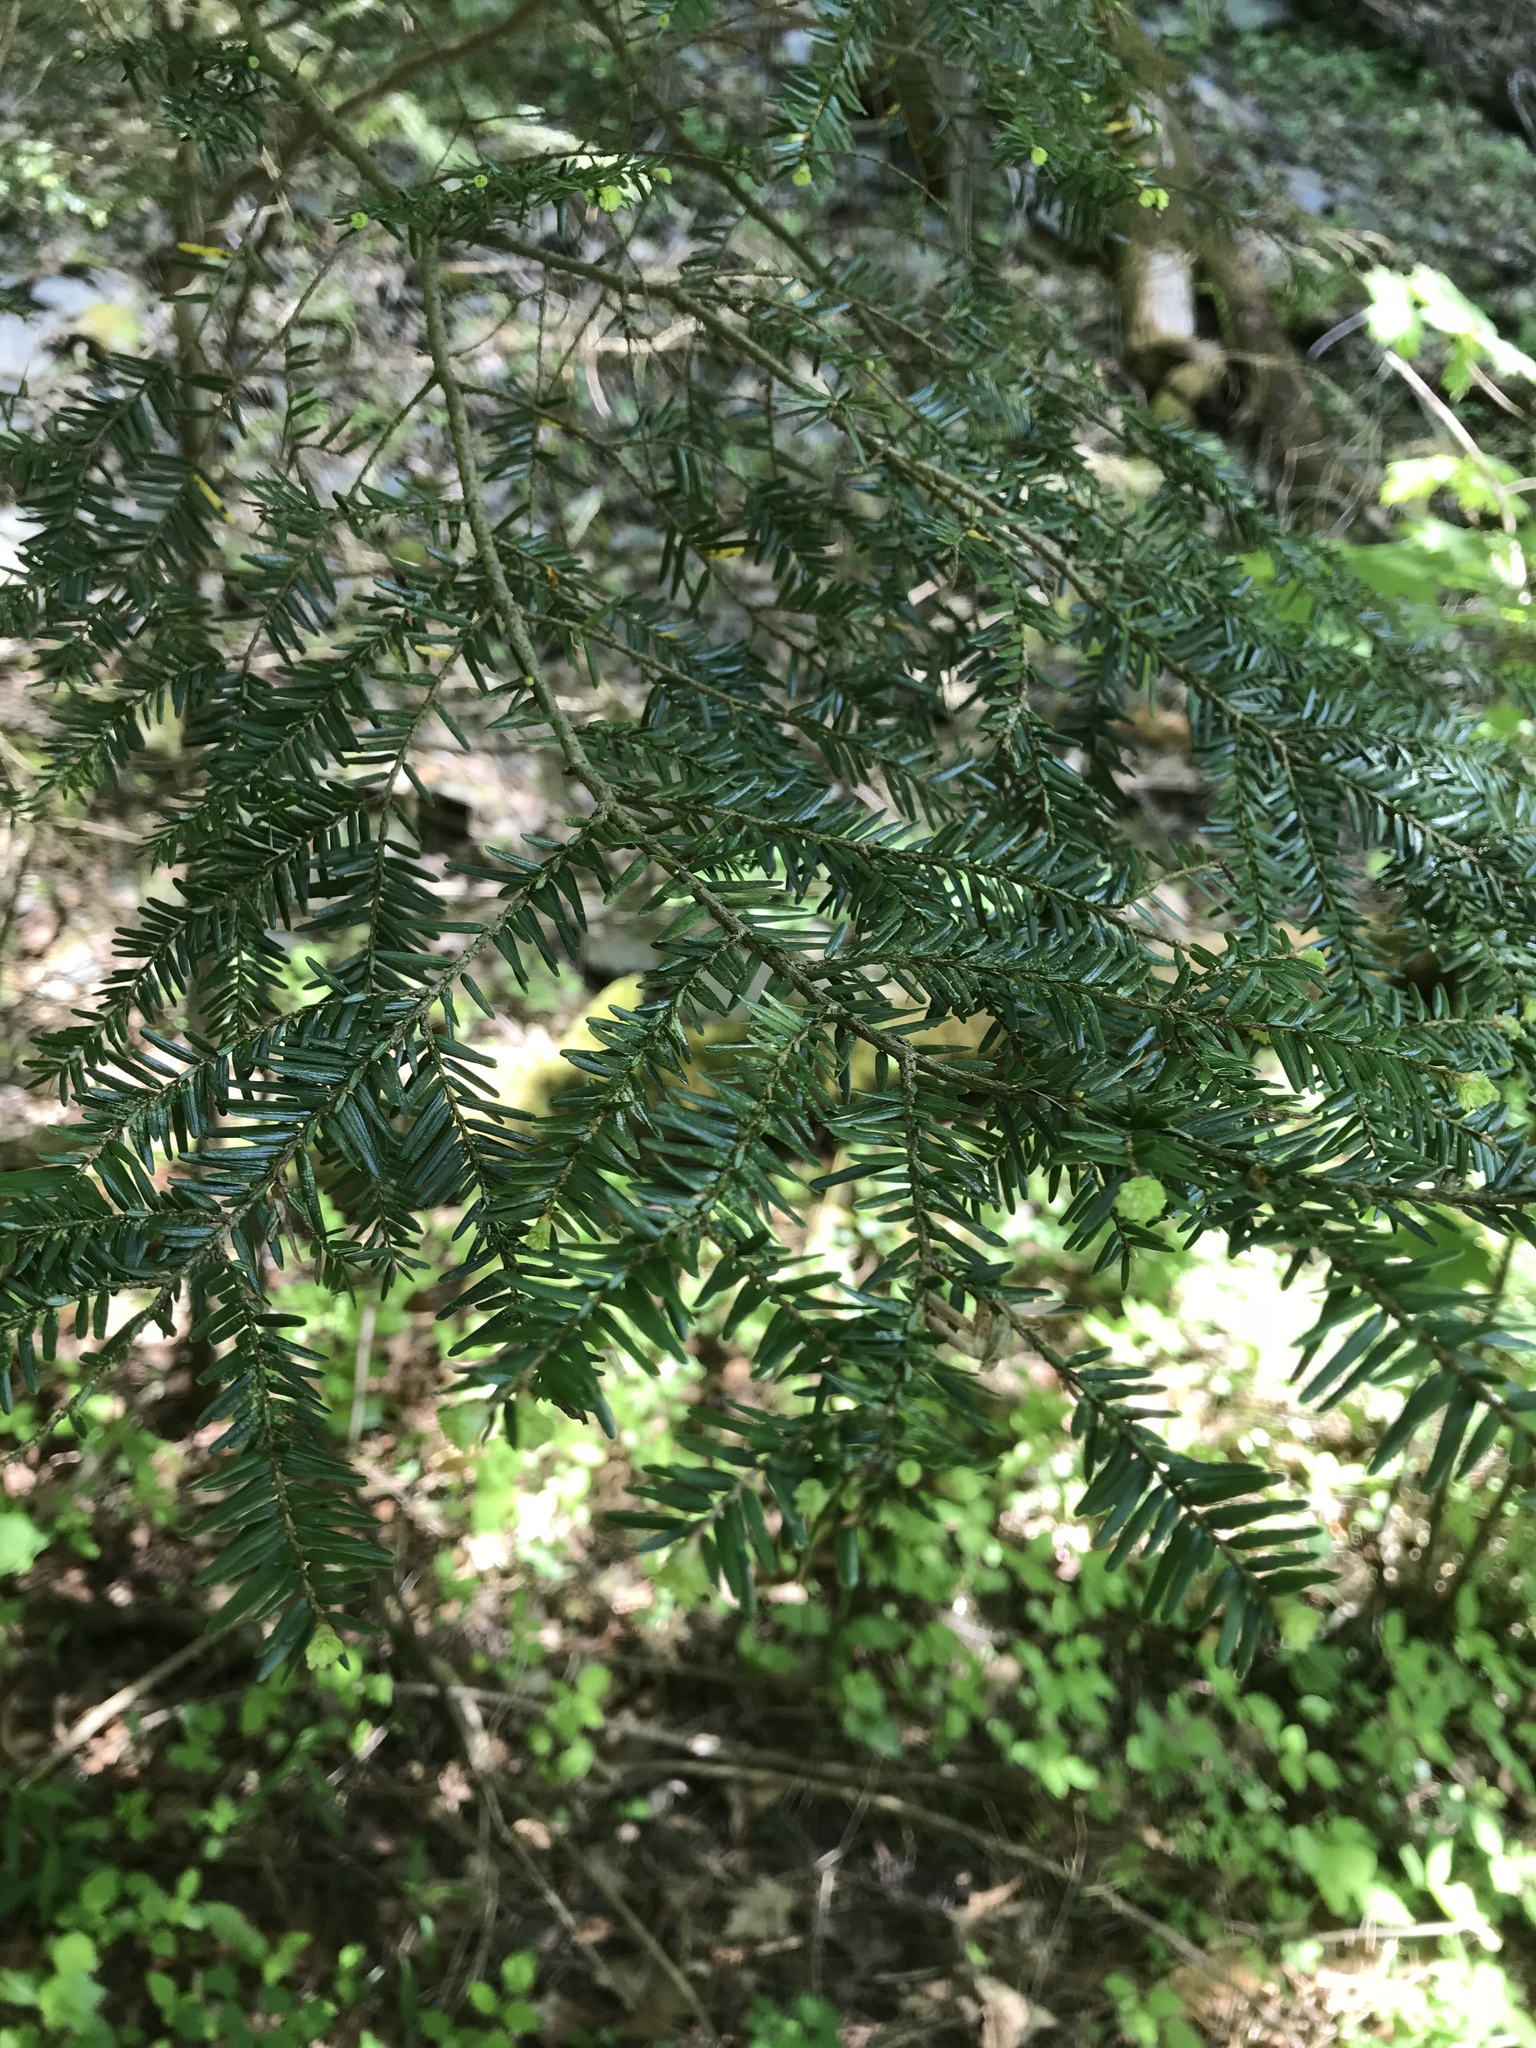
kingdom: Plantae
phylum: Tracheophyta
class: Pinopsida
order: Pinales
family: Pinaceae
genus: Tsuga
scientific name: Tsuga canadensis
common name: Eastern hemlock
